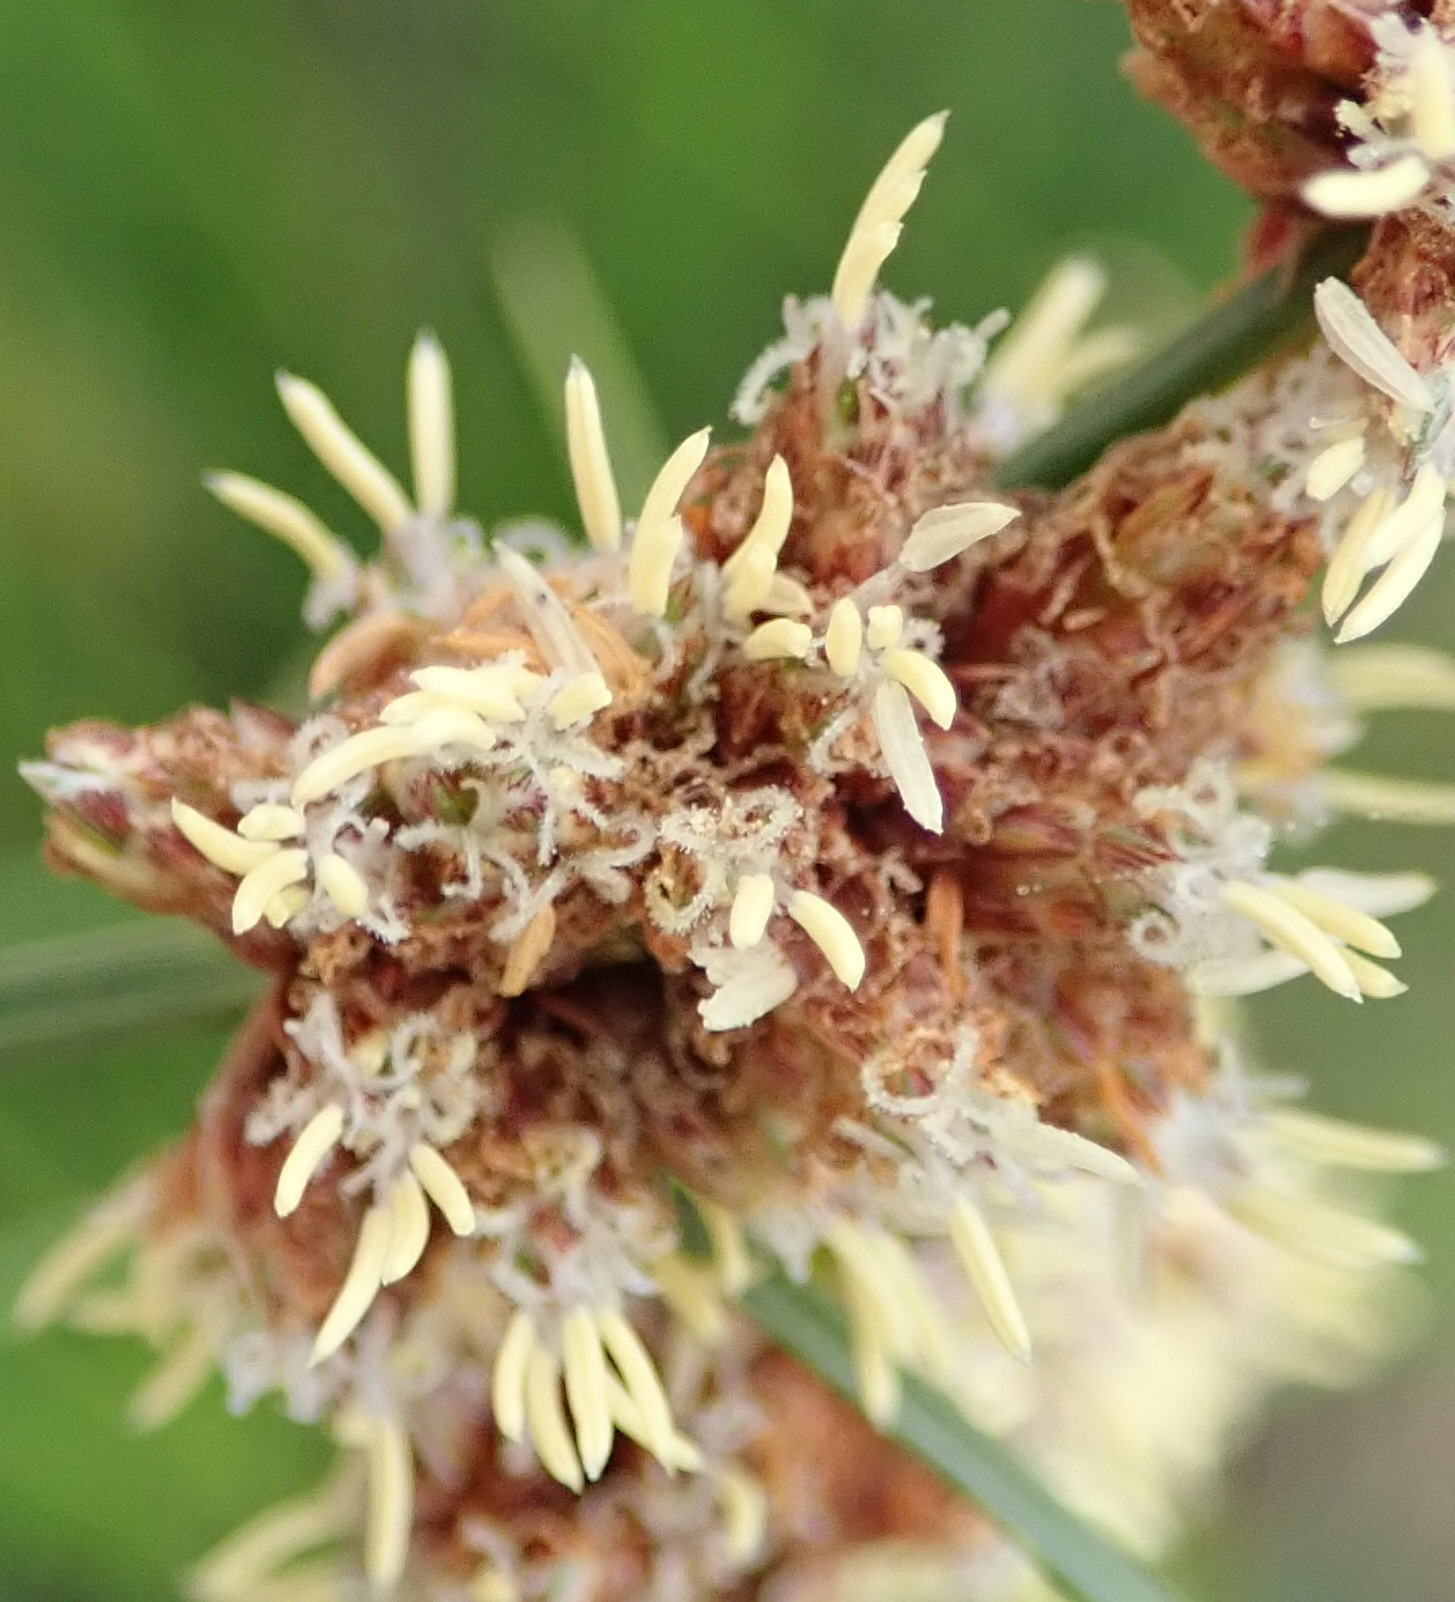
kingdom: Plantae
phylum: Tracheophyta
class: Liliopsida
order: Poales
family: Cyperaceae
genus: Ficinia
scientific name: Ficinia bulbosa
